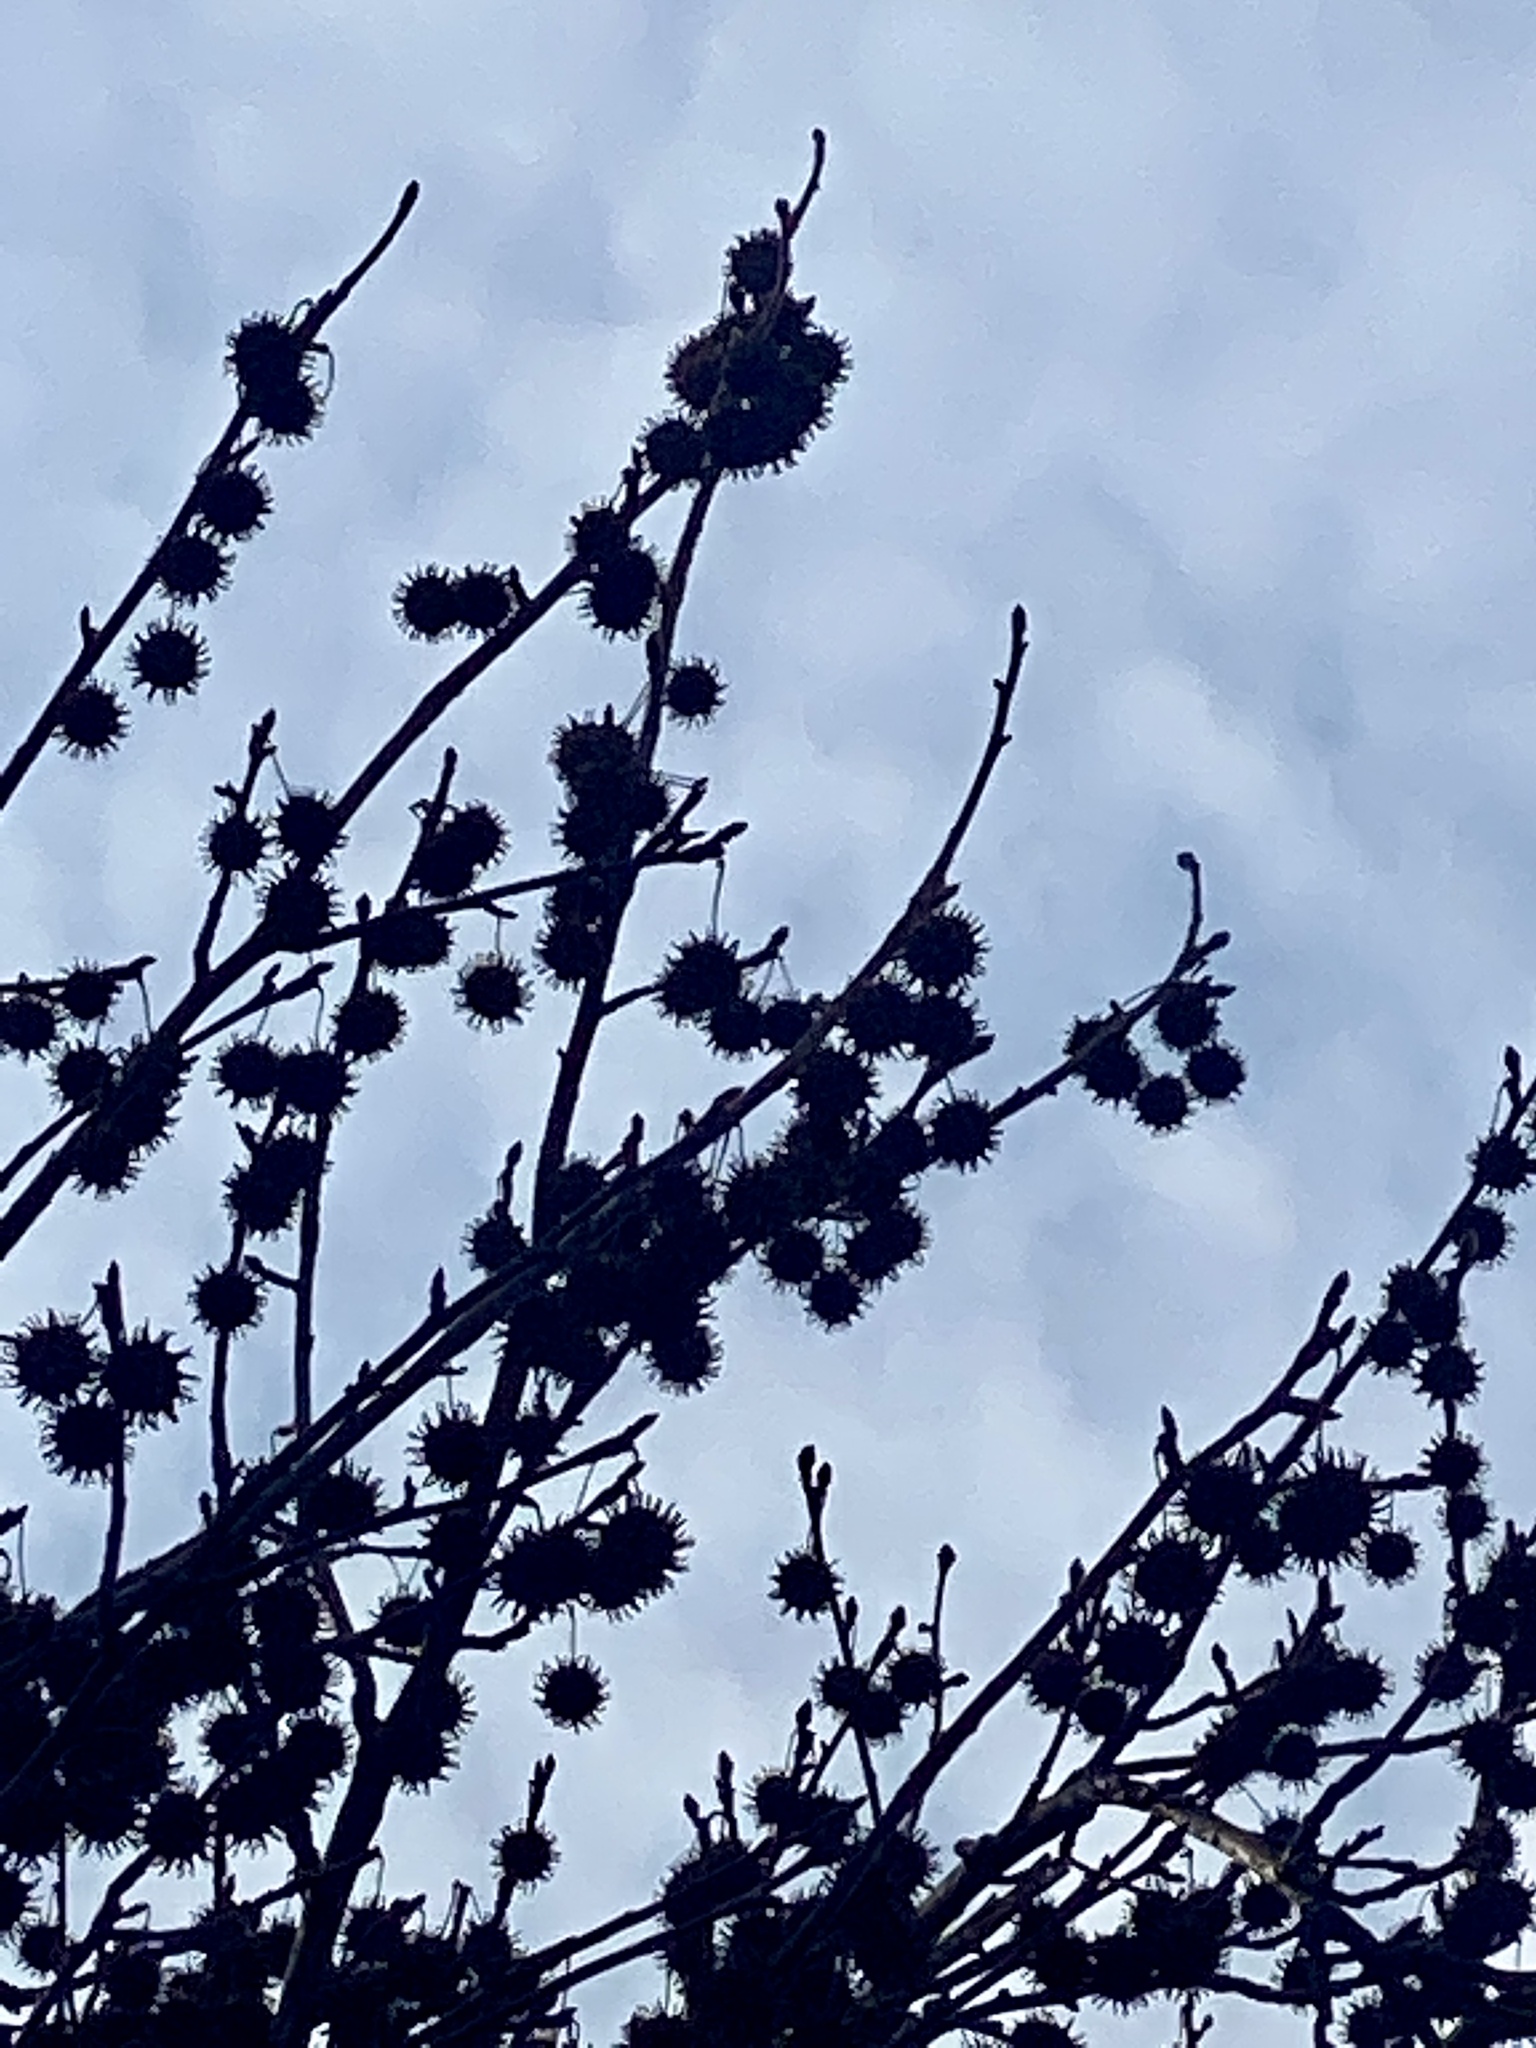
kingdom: Plantae
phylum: Tracheophyta
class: Magnoliopsida
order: Saxifragales
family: Altingiaceae
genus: Liquidambar
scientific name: Liquidambar styraciflua
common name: Sweet gum
